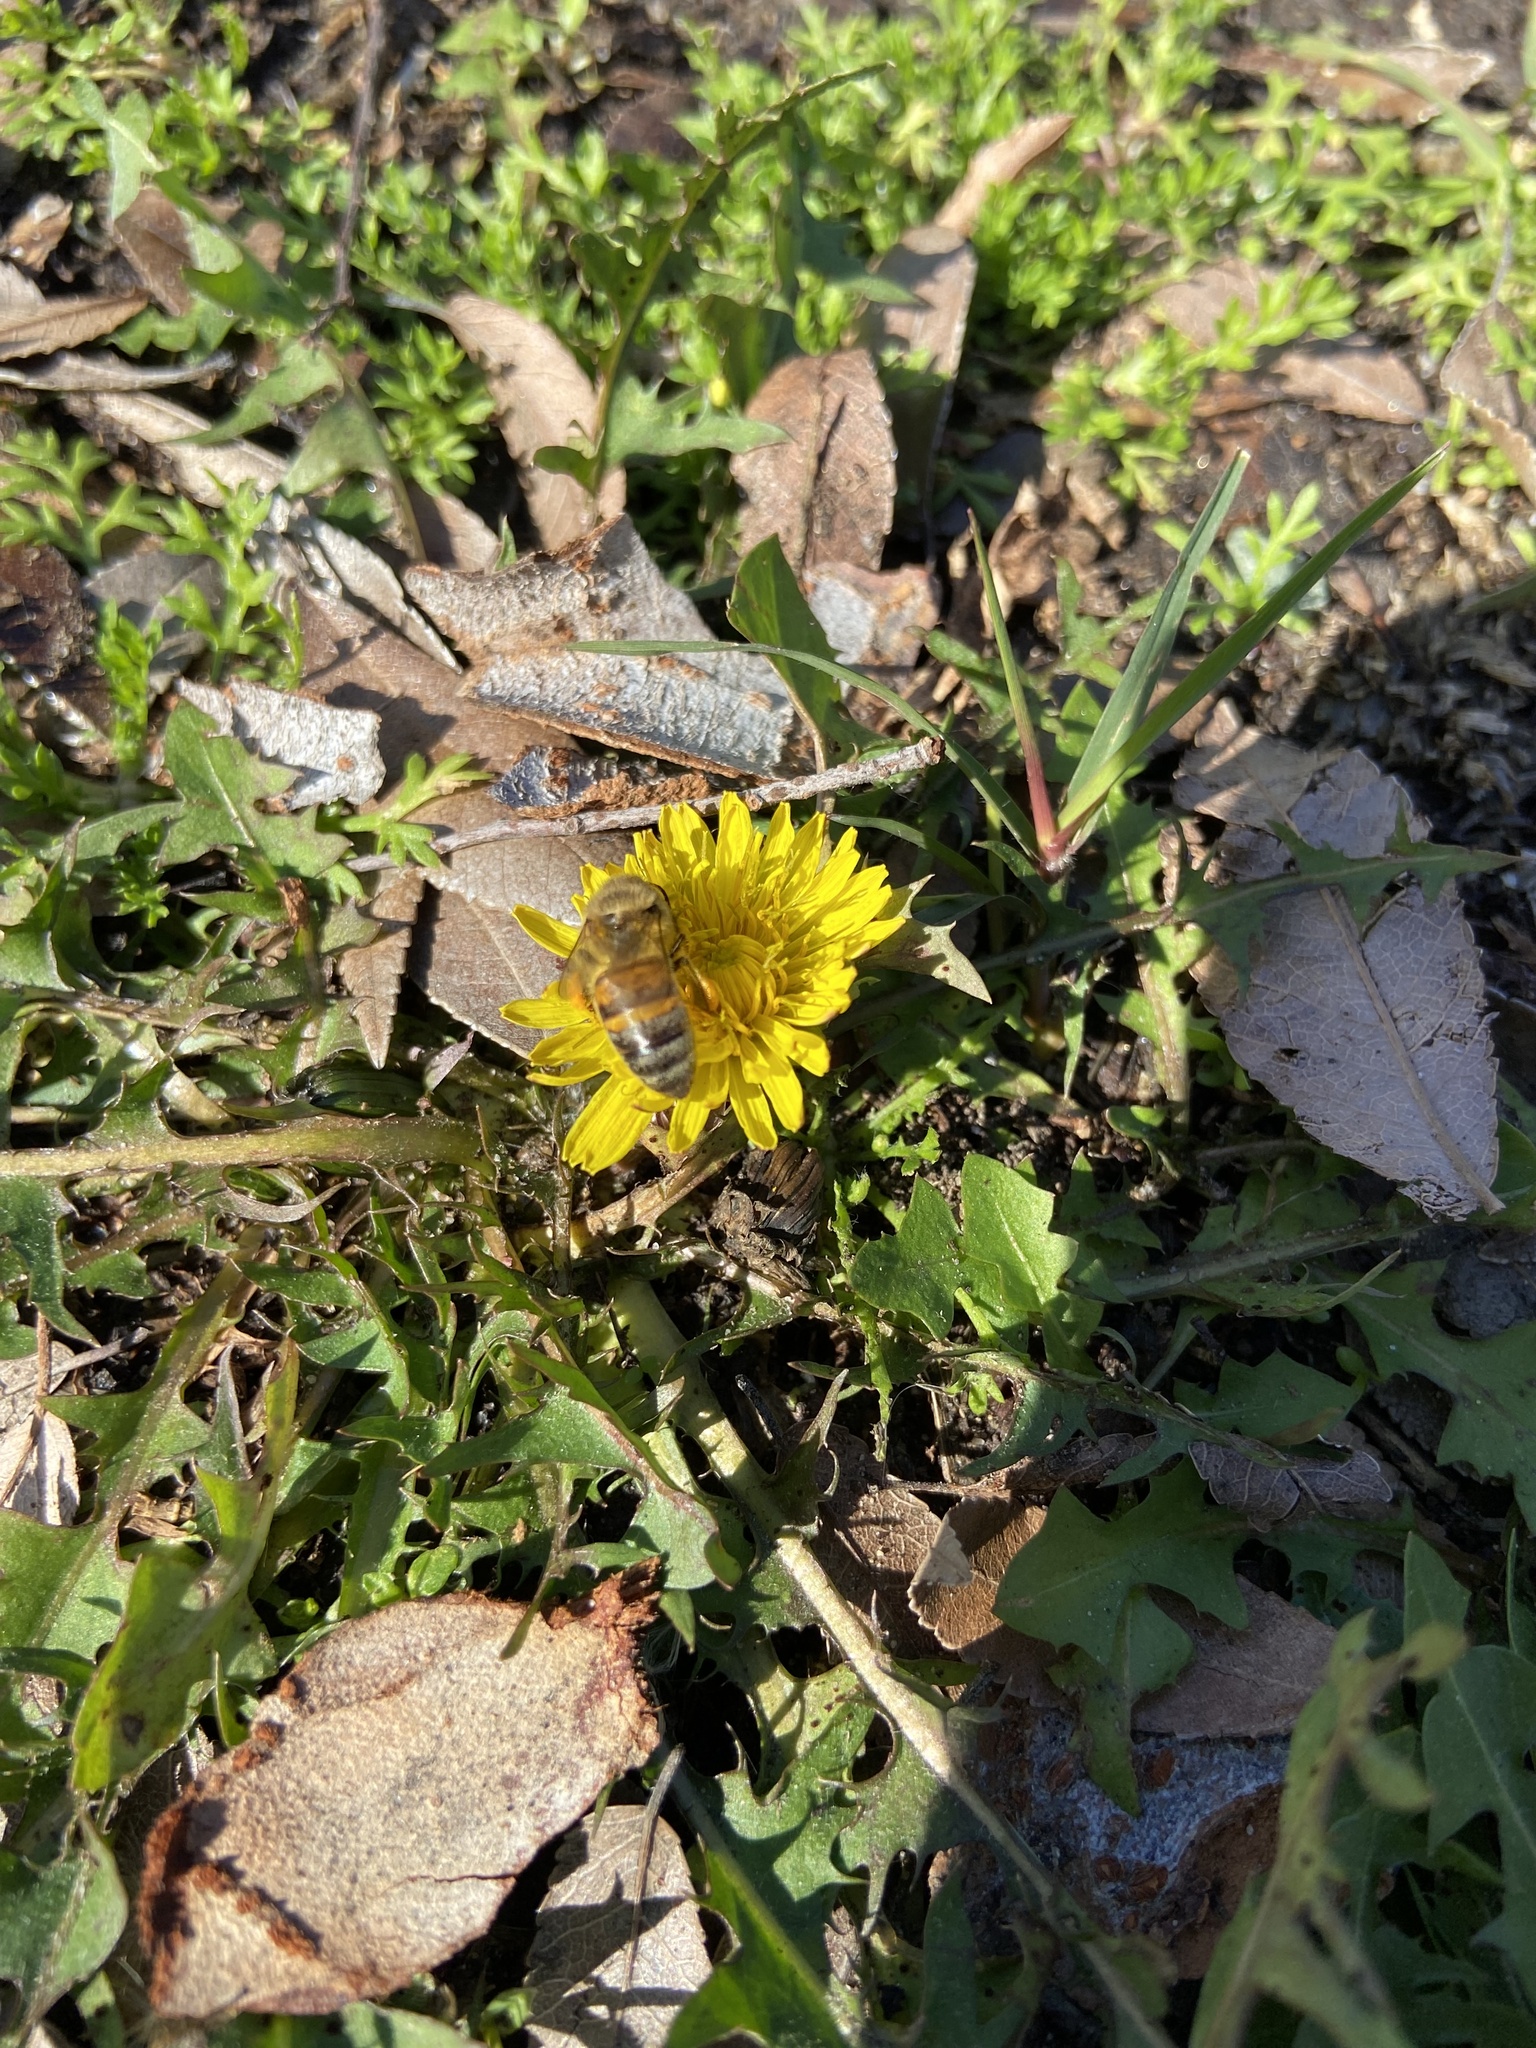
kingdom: Animalia
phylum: Arthropoda
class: Insecta
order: Hymenoptera
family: Apidae
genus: Apis
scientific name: Apis mellifera
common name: Honey bee
